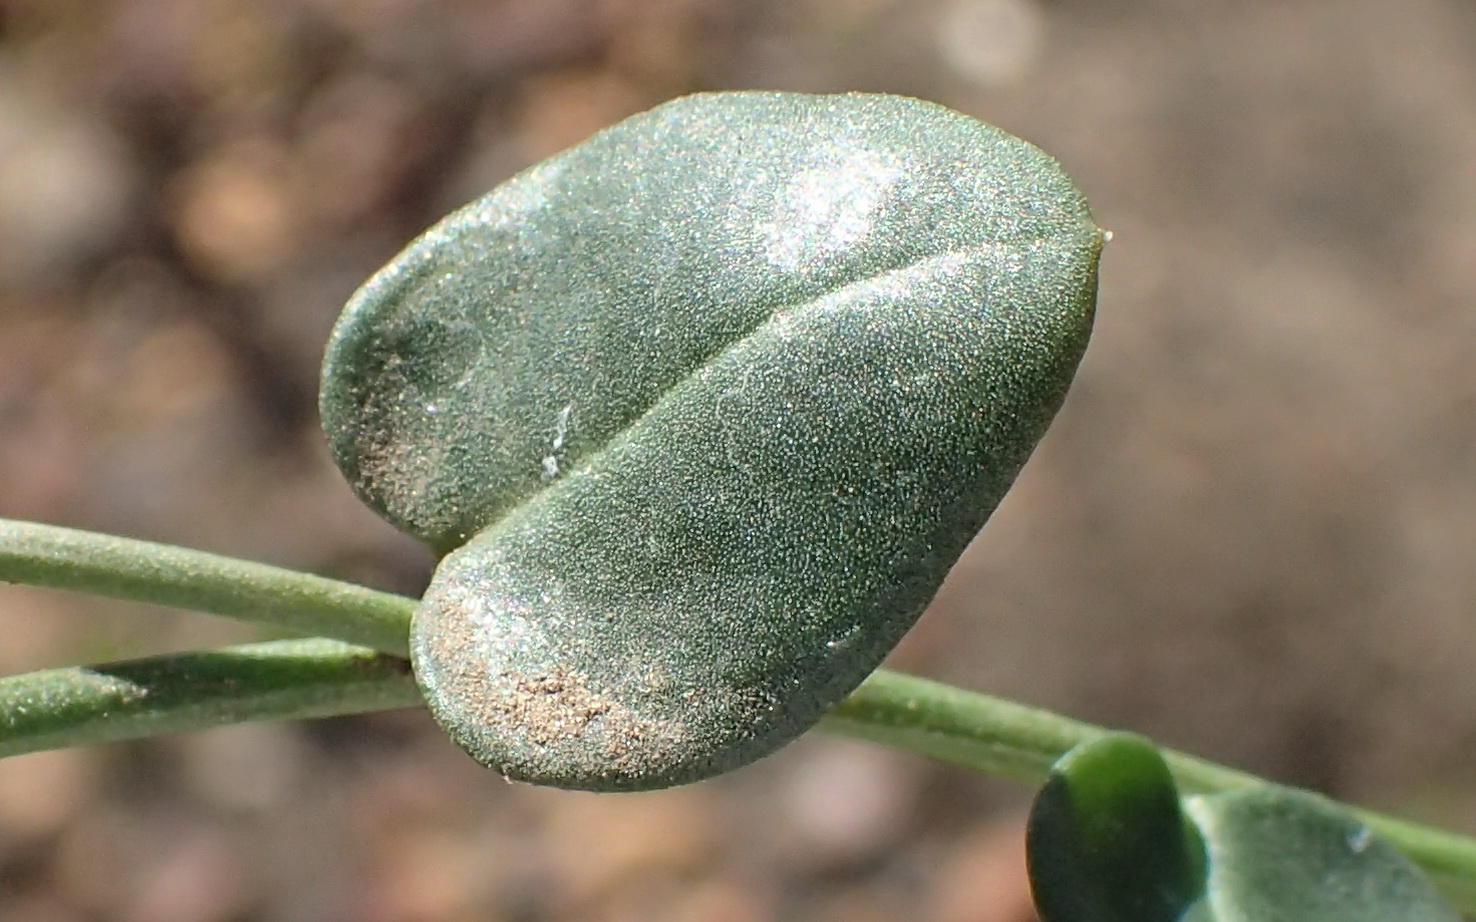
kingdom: Plantae
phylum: Tracheophyta
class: Magnoliopsida
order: Caryophyllales
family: Limeaceae
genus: Limeum
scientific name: Limeum telephioides
